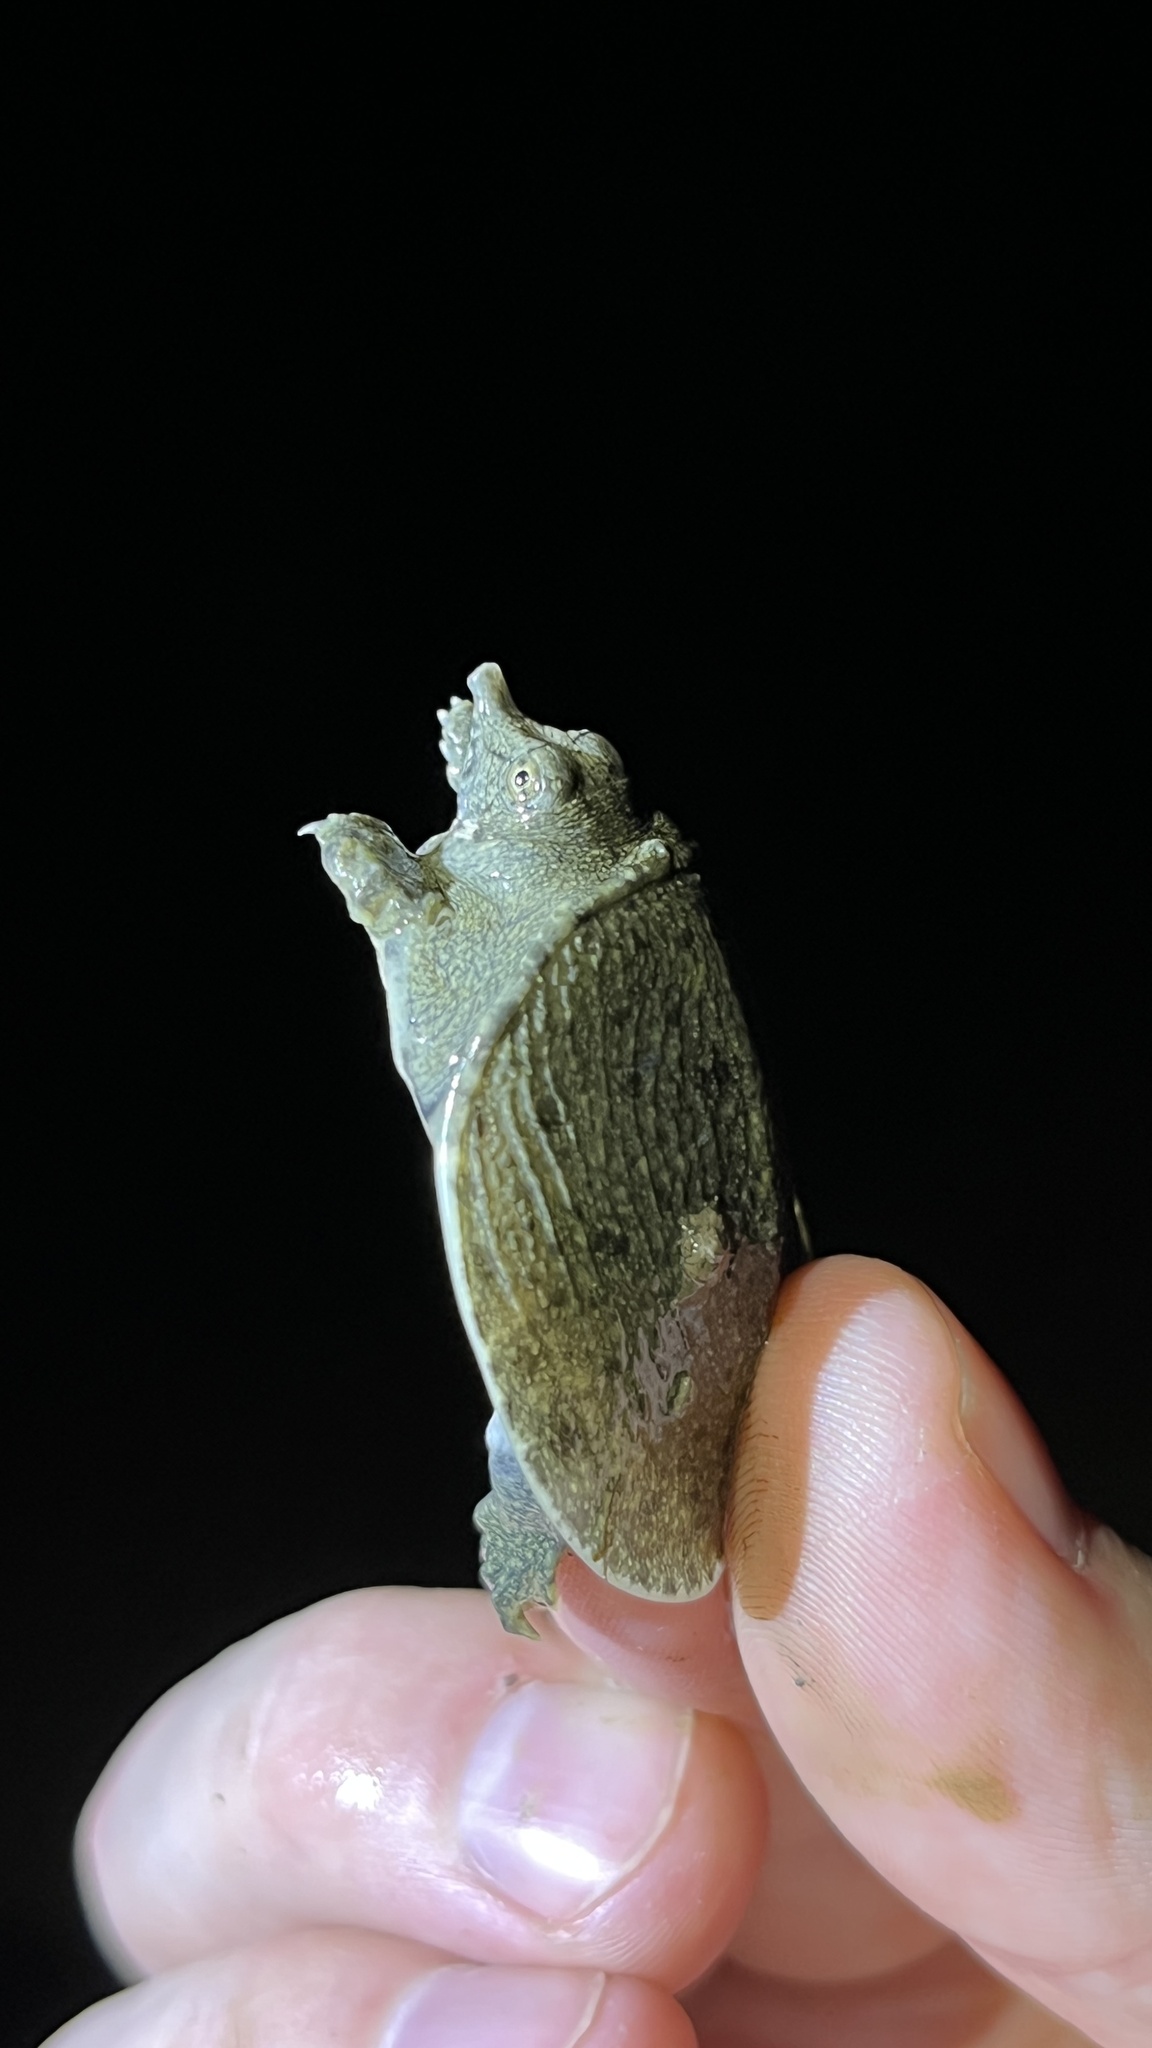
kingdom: Animalia
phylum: Chordata
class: Testudines
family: Trionychidae
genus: Pelodiscus
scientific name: Pelodiscus sinensis
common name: Chinese softshell turtle
